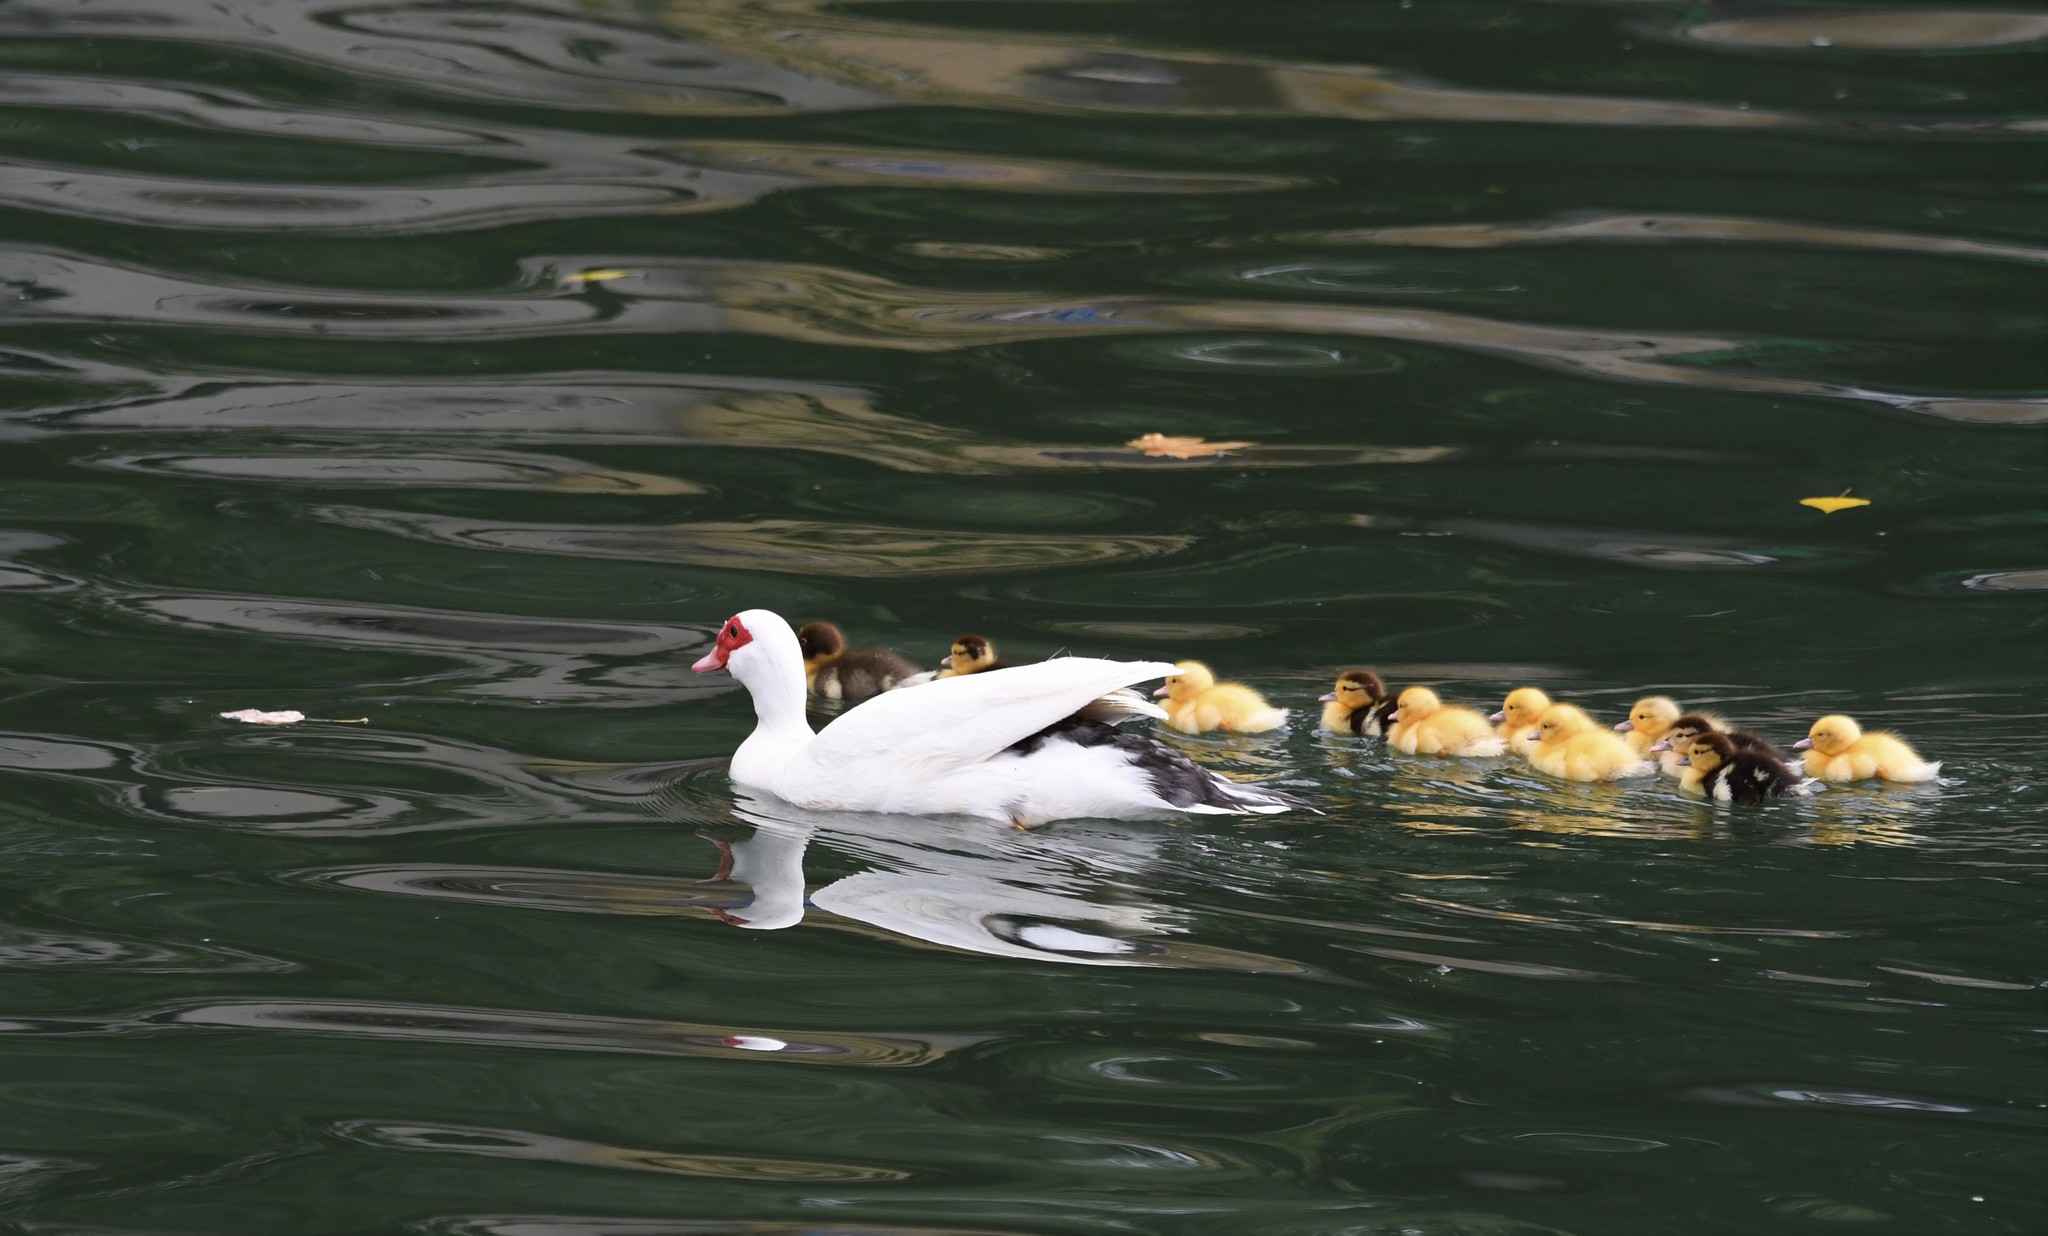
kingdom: Animalia
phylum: Chordata
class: Aves
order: Anseriformes
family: Anatidae
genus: Cairina
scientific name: Cairina moschata
